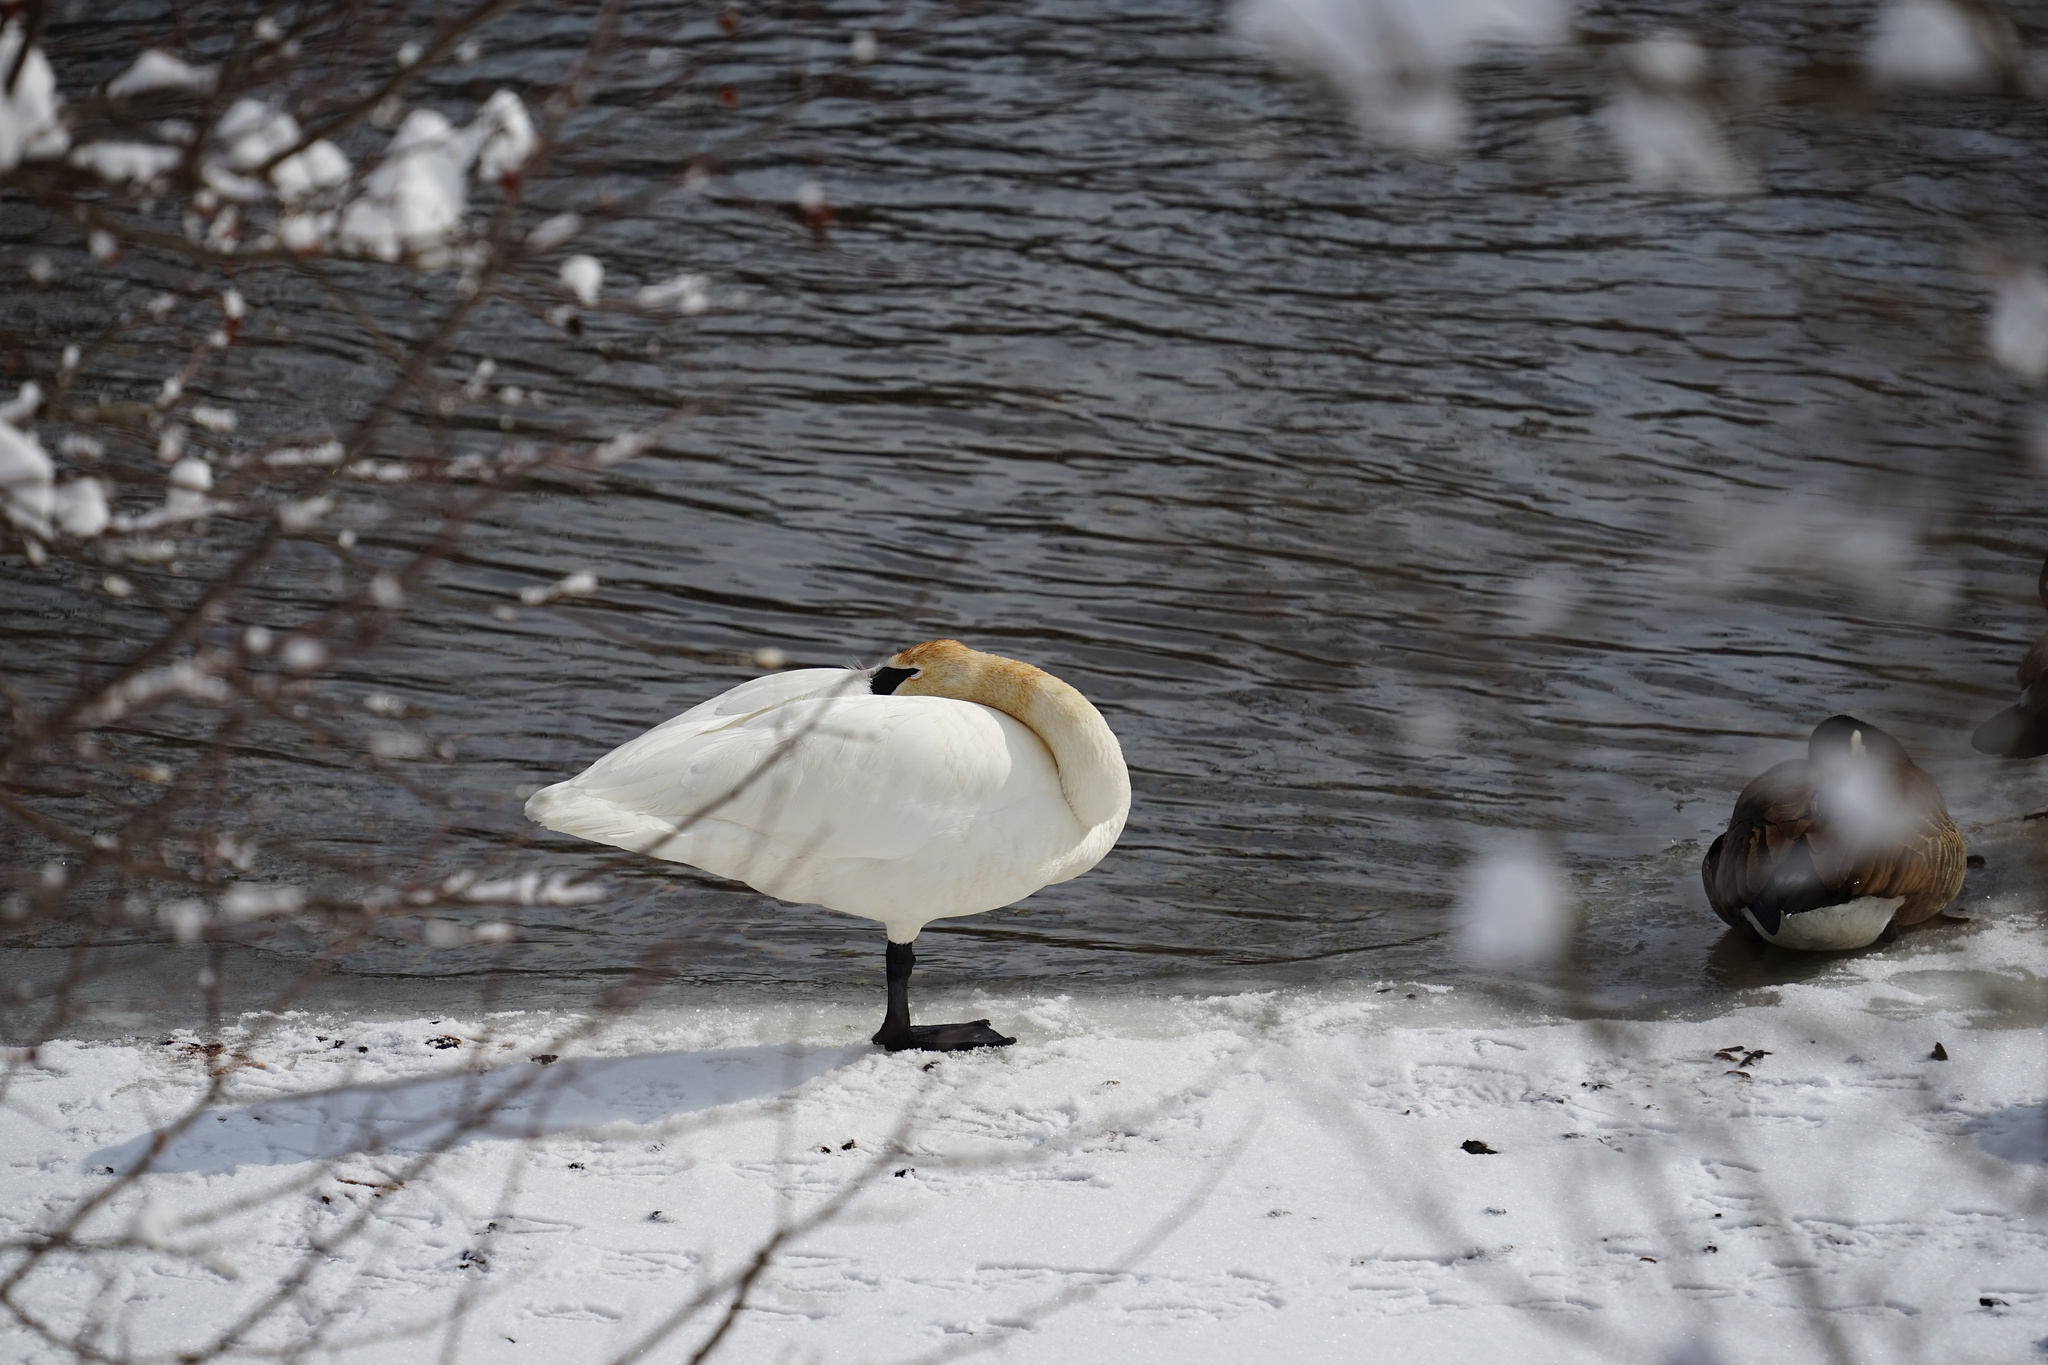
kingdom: Animalia
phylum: Chordata
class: Aves
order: Anseriformes
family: Anatidae
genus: Cygnus
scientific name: Cygnus buccinator
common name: Trumpeter swan
